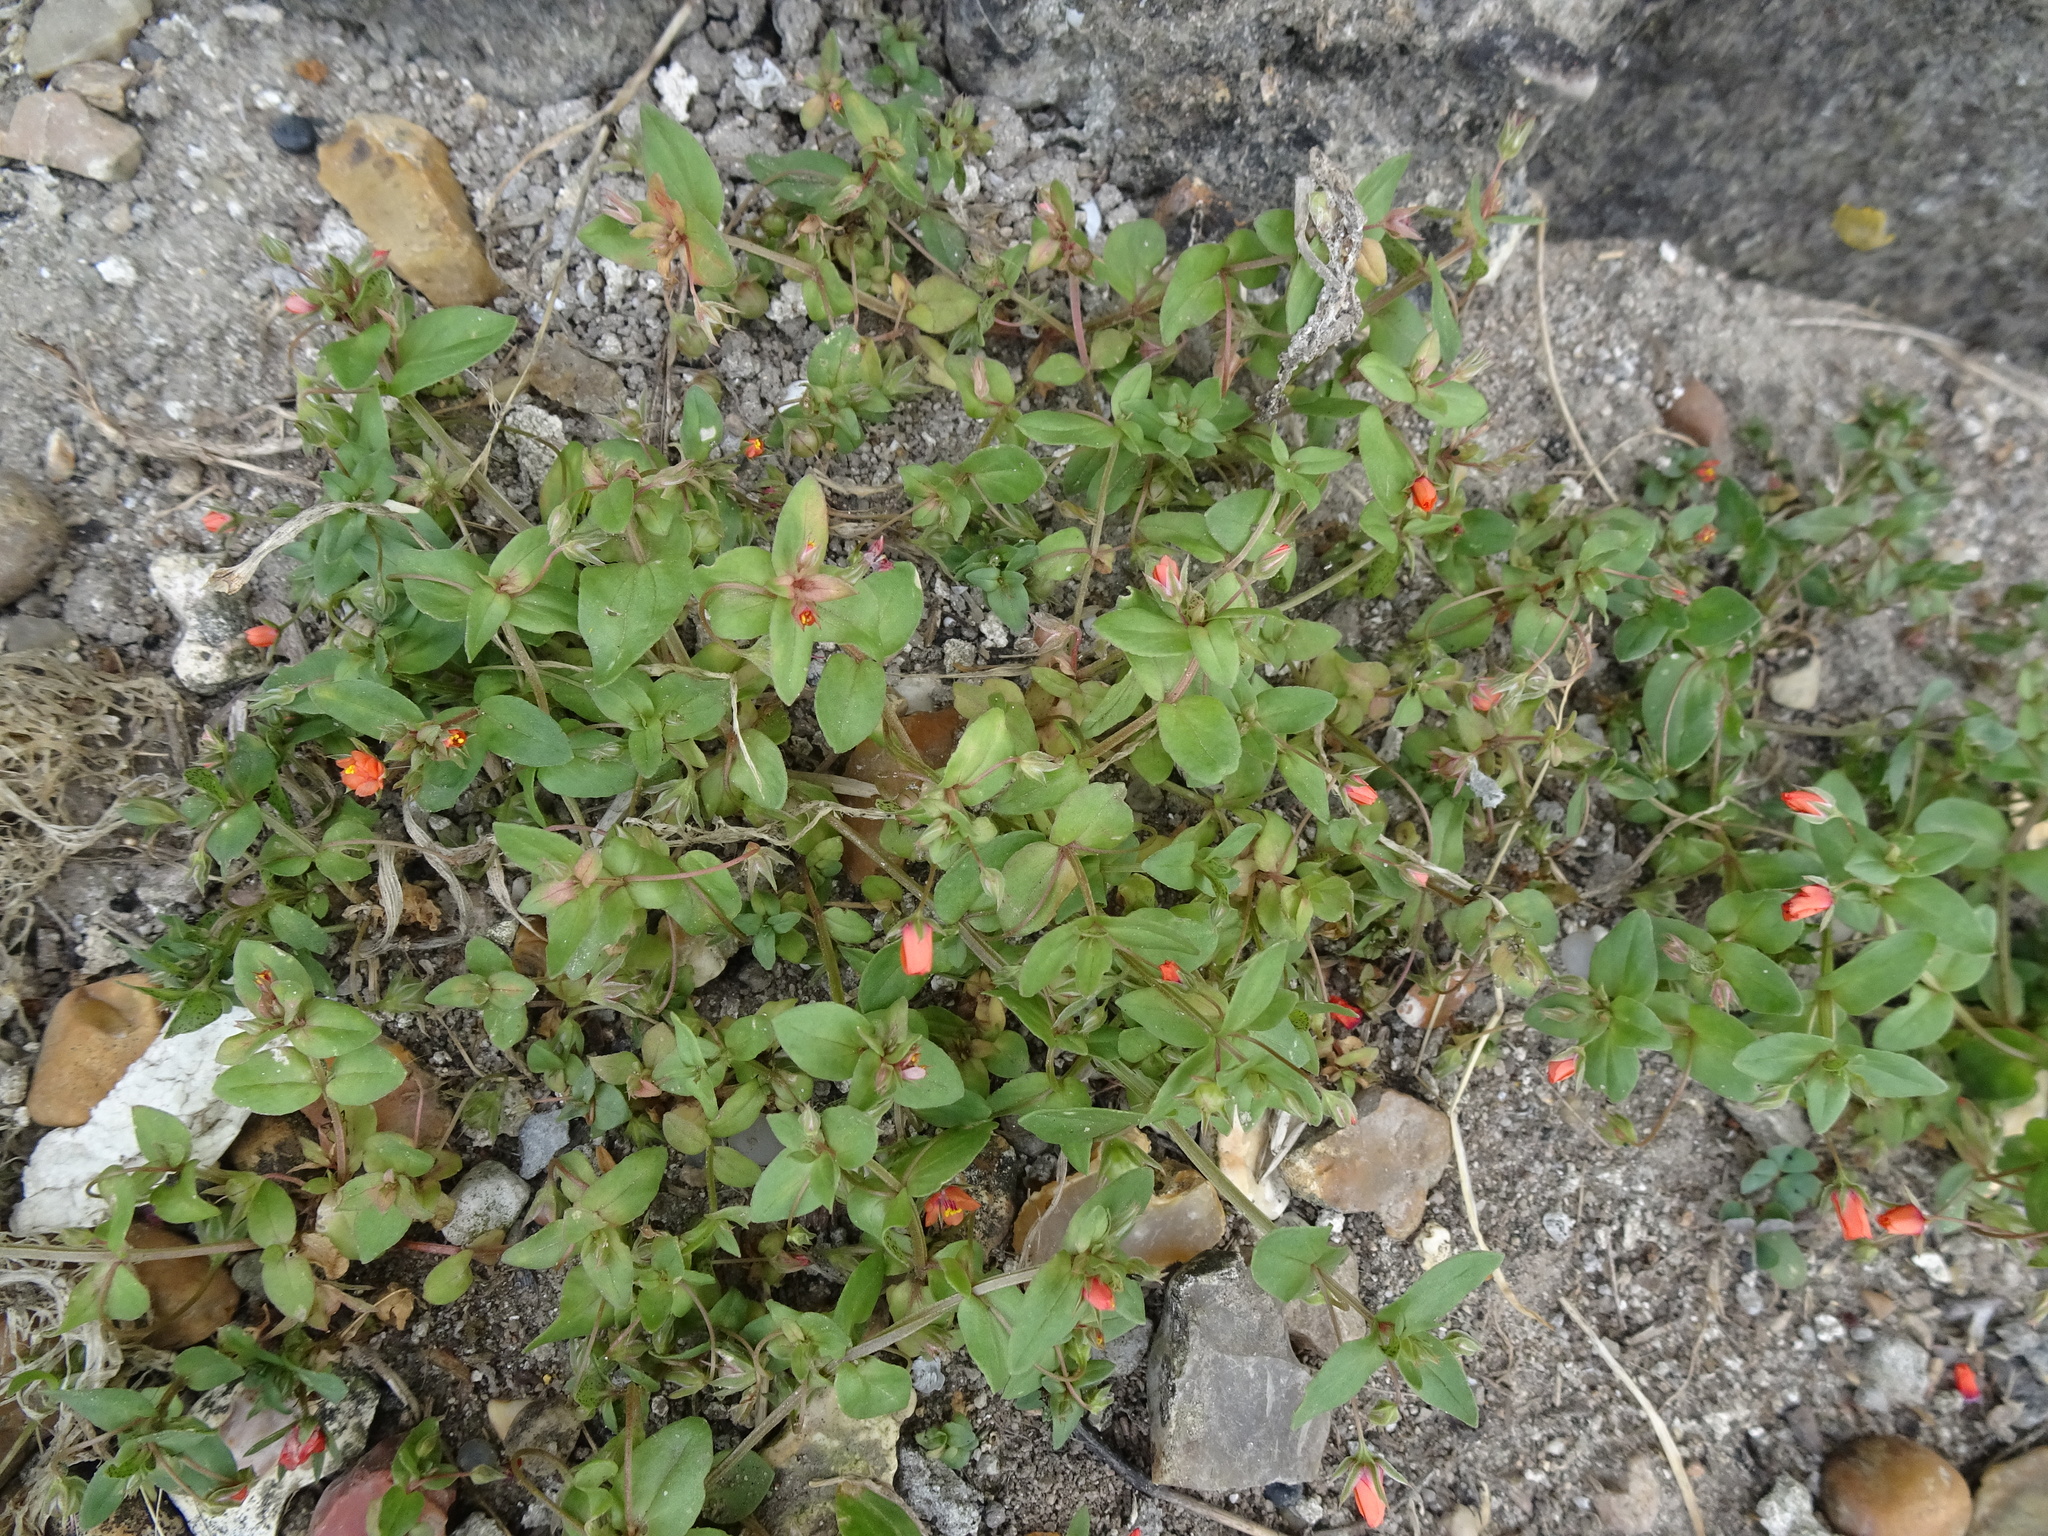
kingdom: Plantae
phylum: Tracheophyta
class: Magnoliopsida
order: Ericales
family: Primulaceae
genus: Lysimachia
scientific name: Lysimachia arvensis
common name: Scarlet pimpernel
